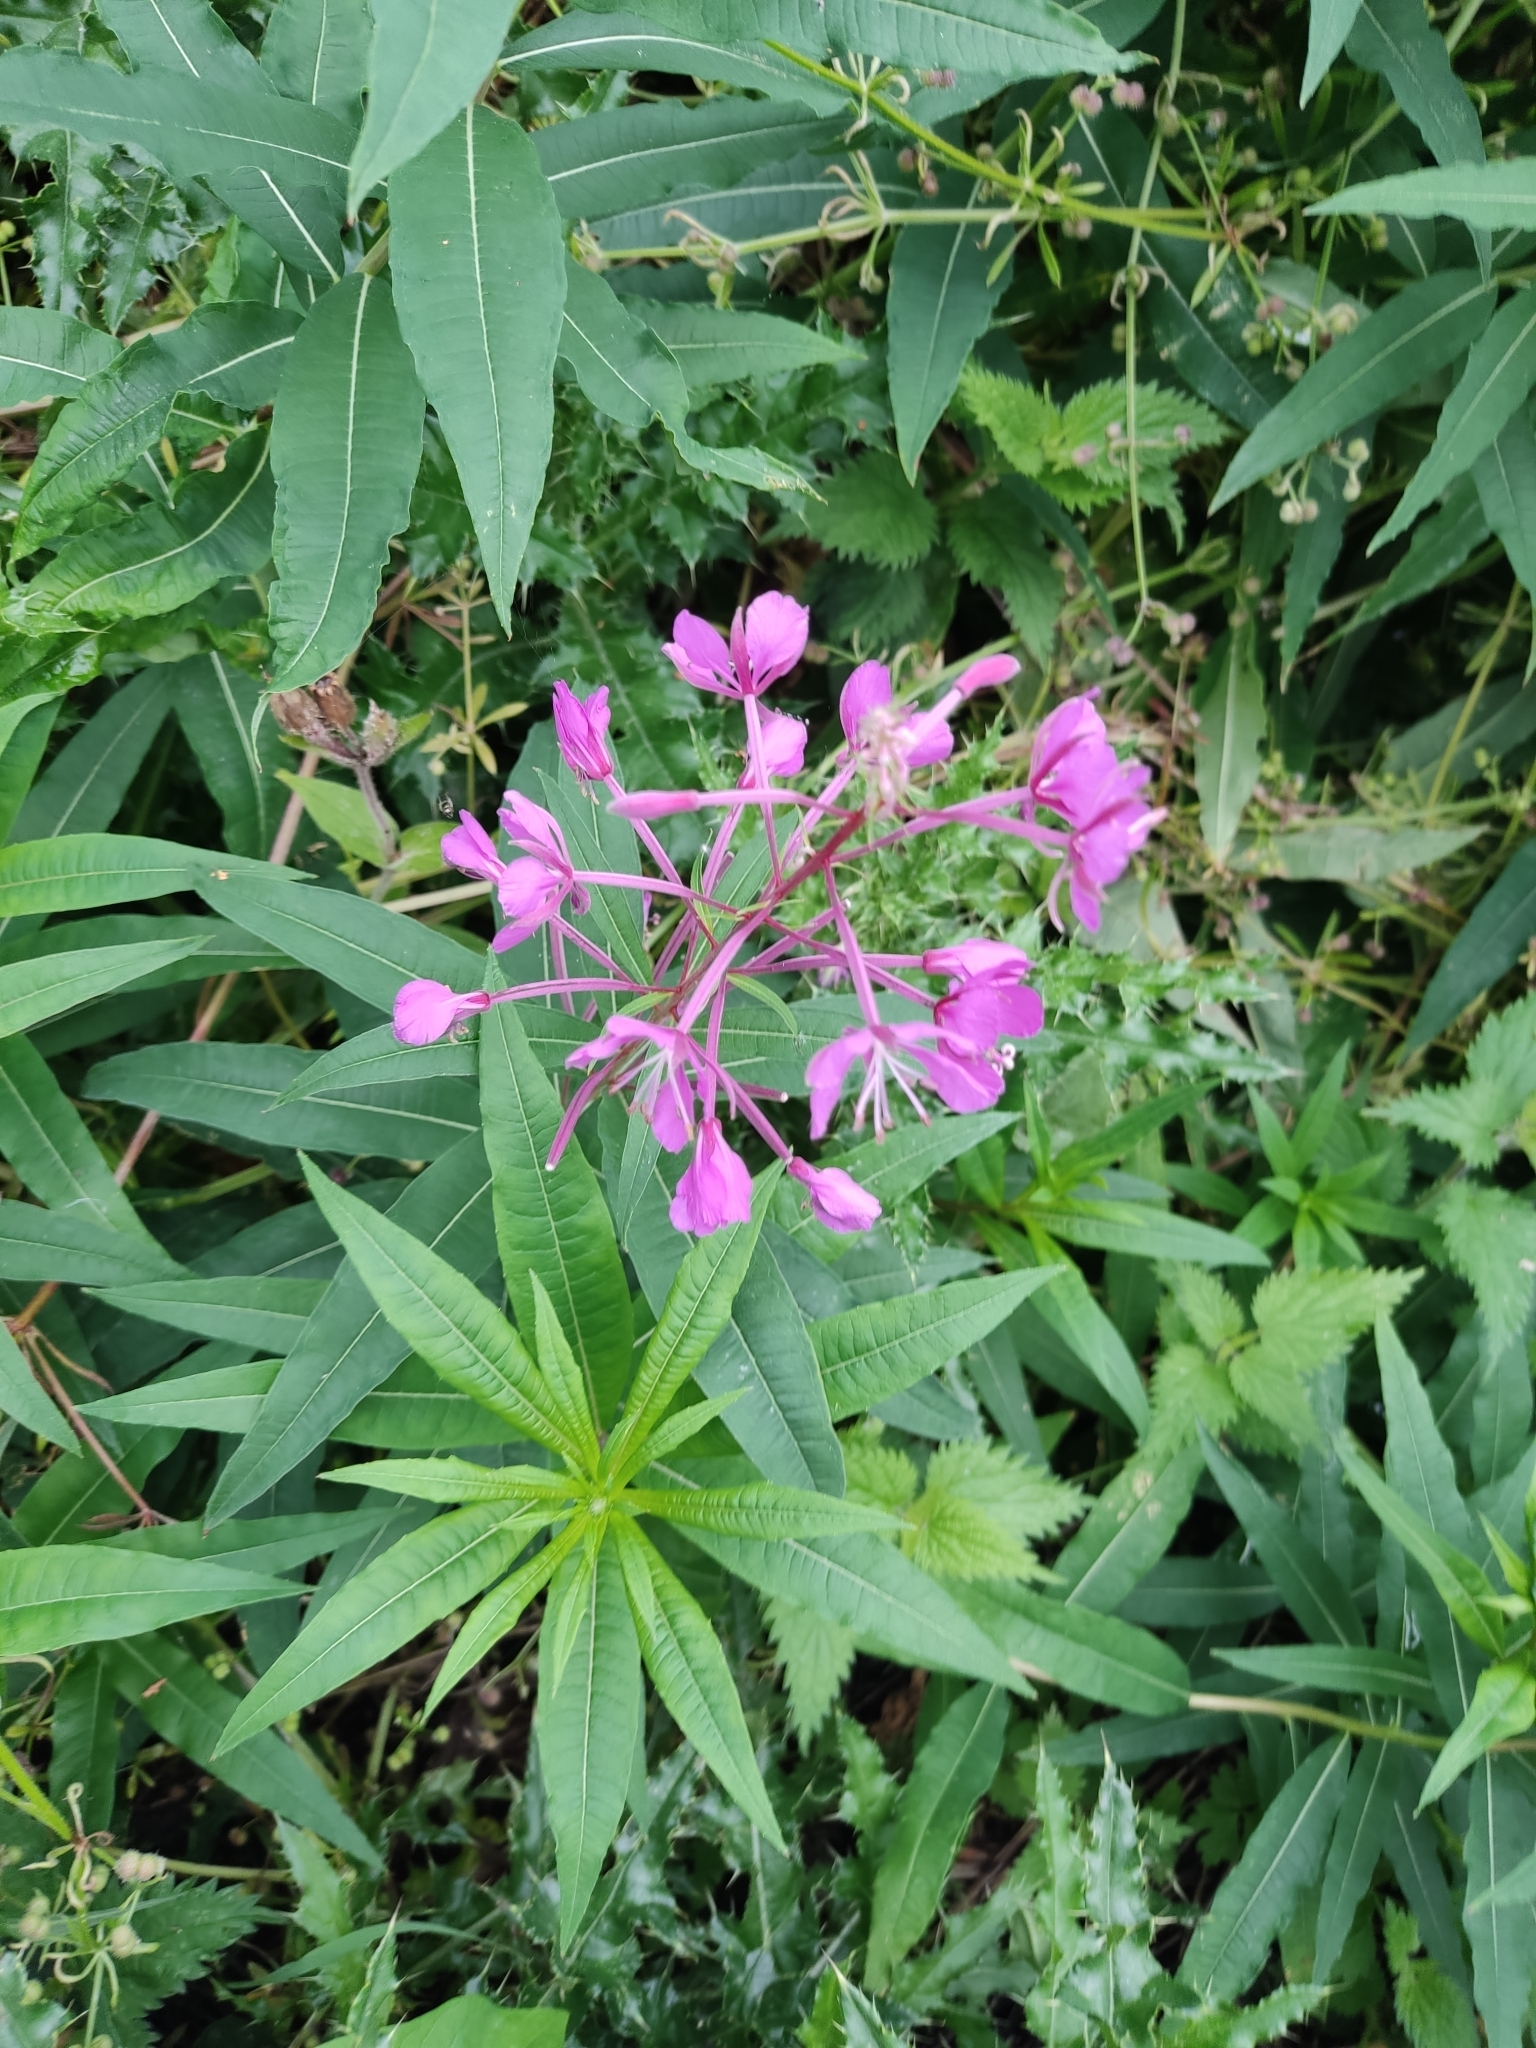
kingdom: Plantae
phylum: Tracheophyta
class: Magnoliopsida
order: Myrtales
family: Onagraceae
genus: Chamaenerion
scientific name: Chamaenerion angustifolium
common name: Fireweed
